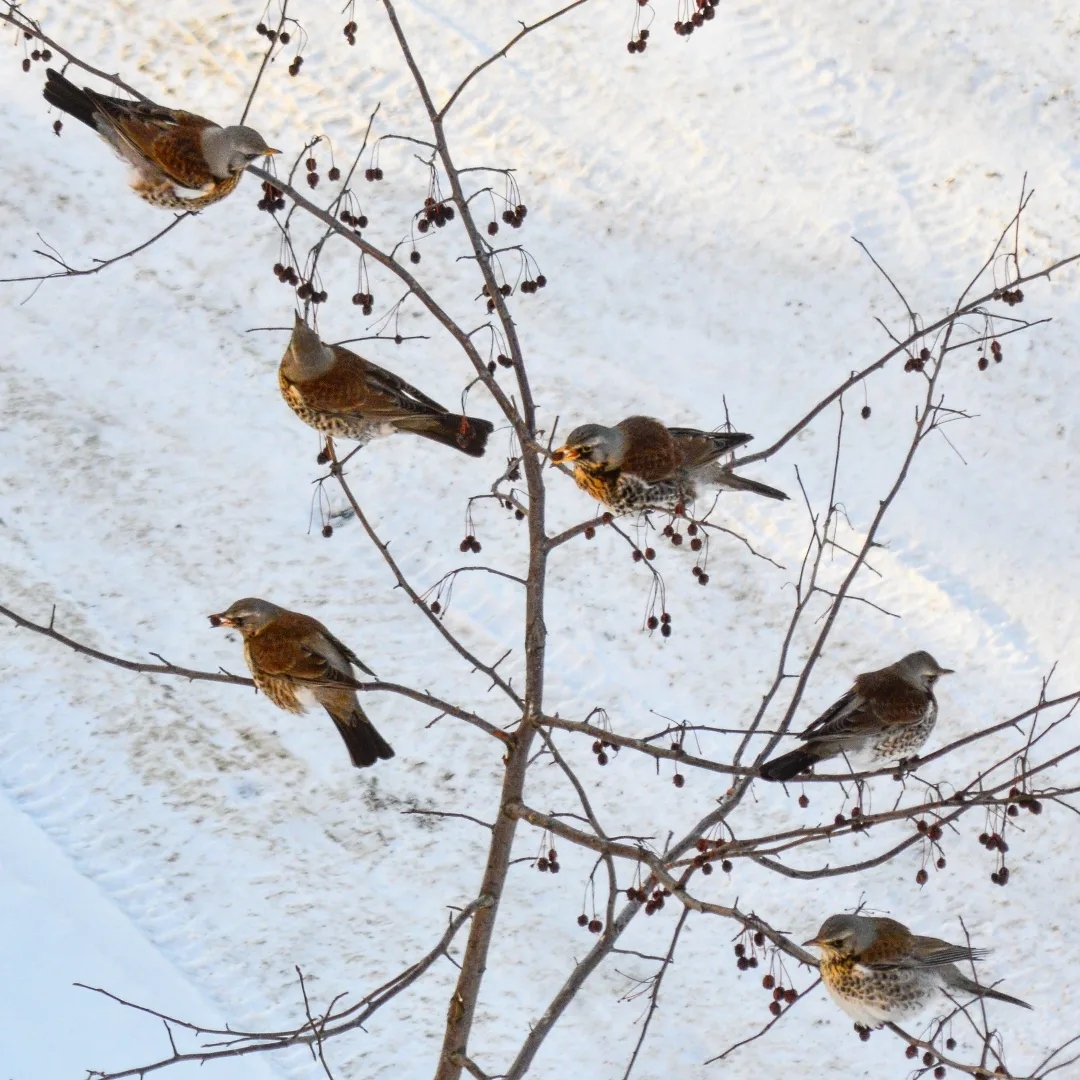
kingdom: Animalia
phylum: Chordata
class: Aves
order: Passeriformes
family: Turdidae
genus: Turdus
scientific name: Turdus pilaris
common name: Fieldfare
